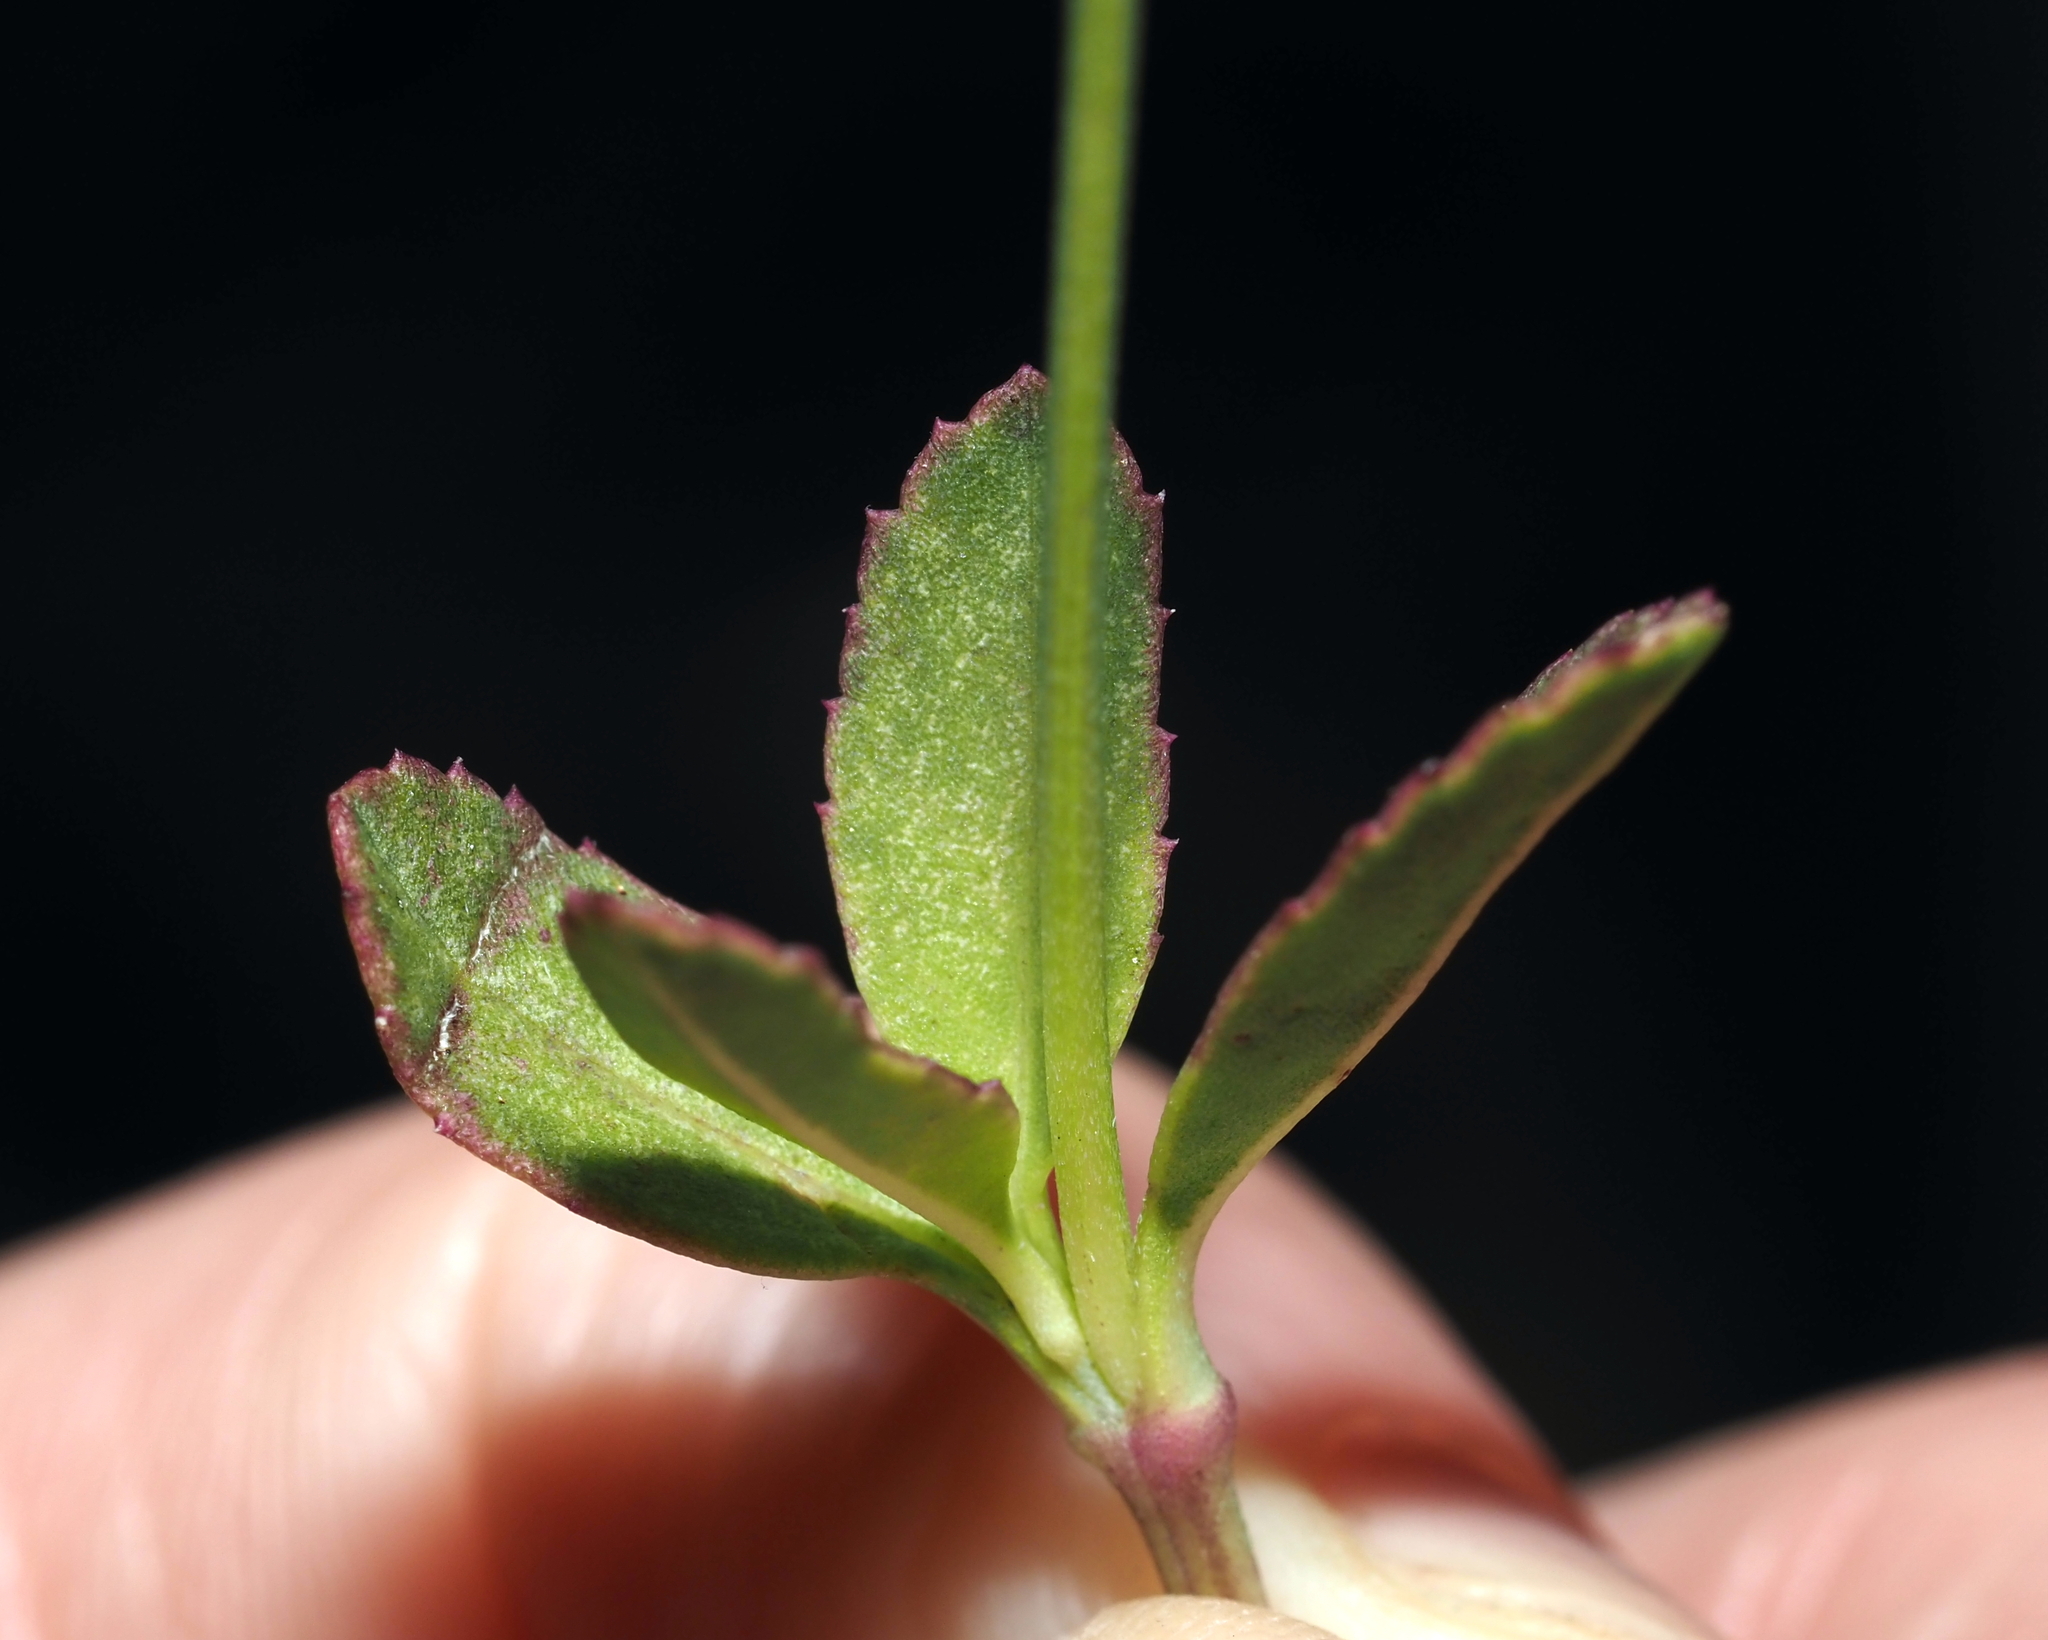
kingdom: Plantae
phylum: Tracheophyta
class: Magnoliopsida
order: Lamiales
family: Verbenaceae
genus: Phyla
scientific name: Phyla nodiflora
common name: Frogfruit
